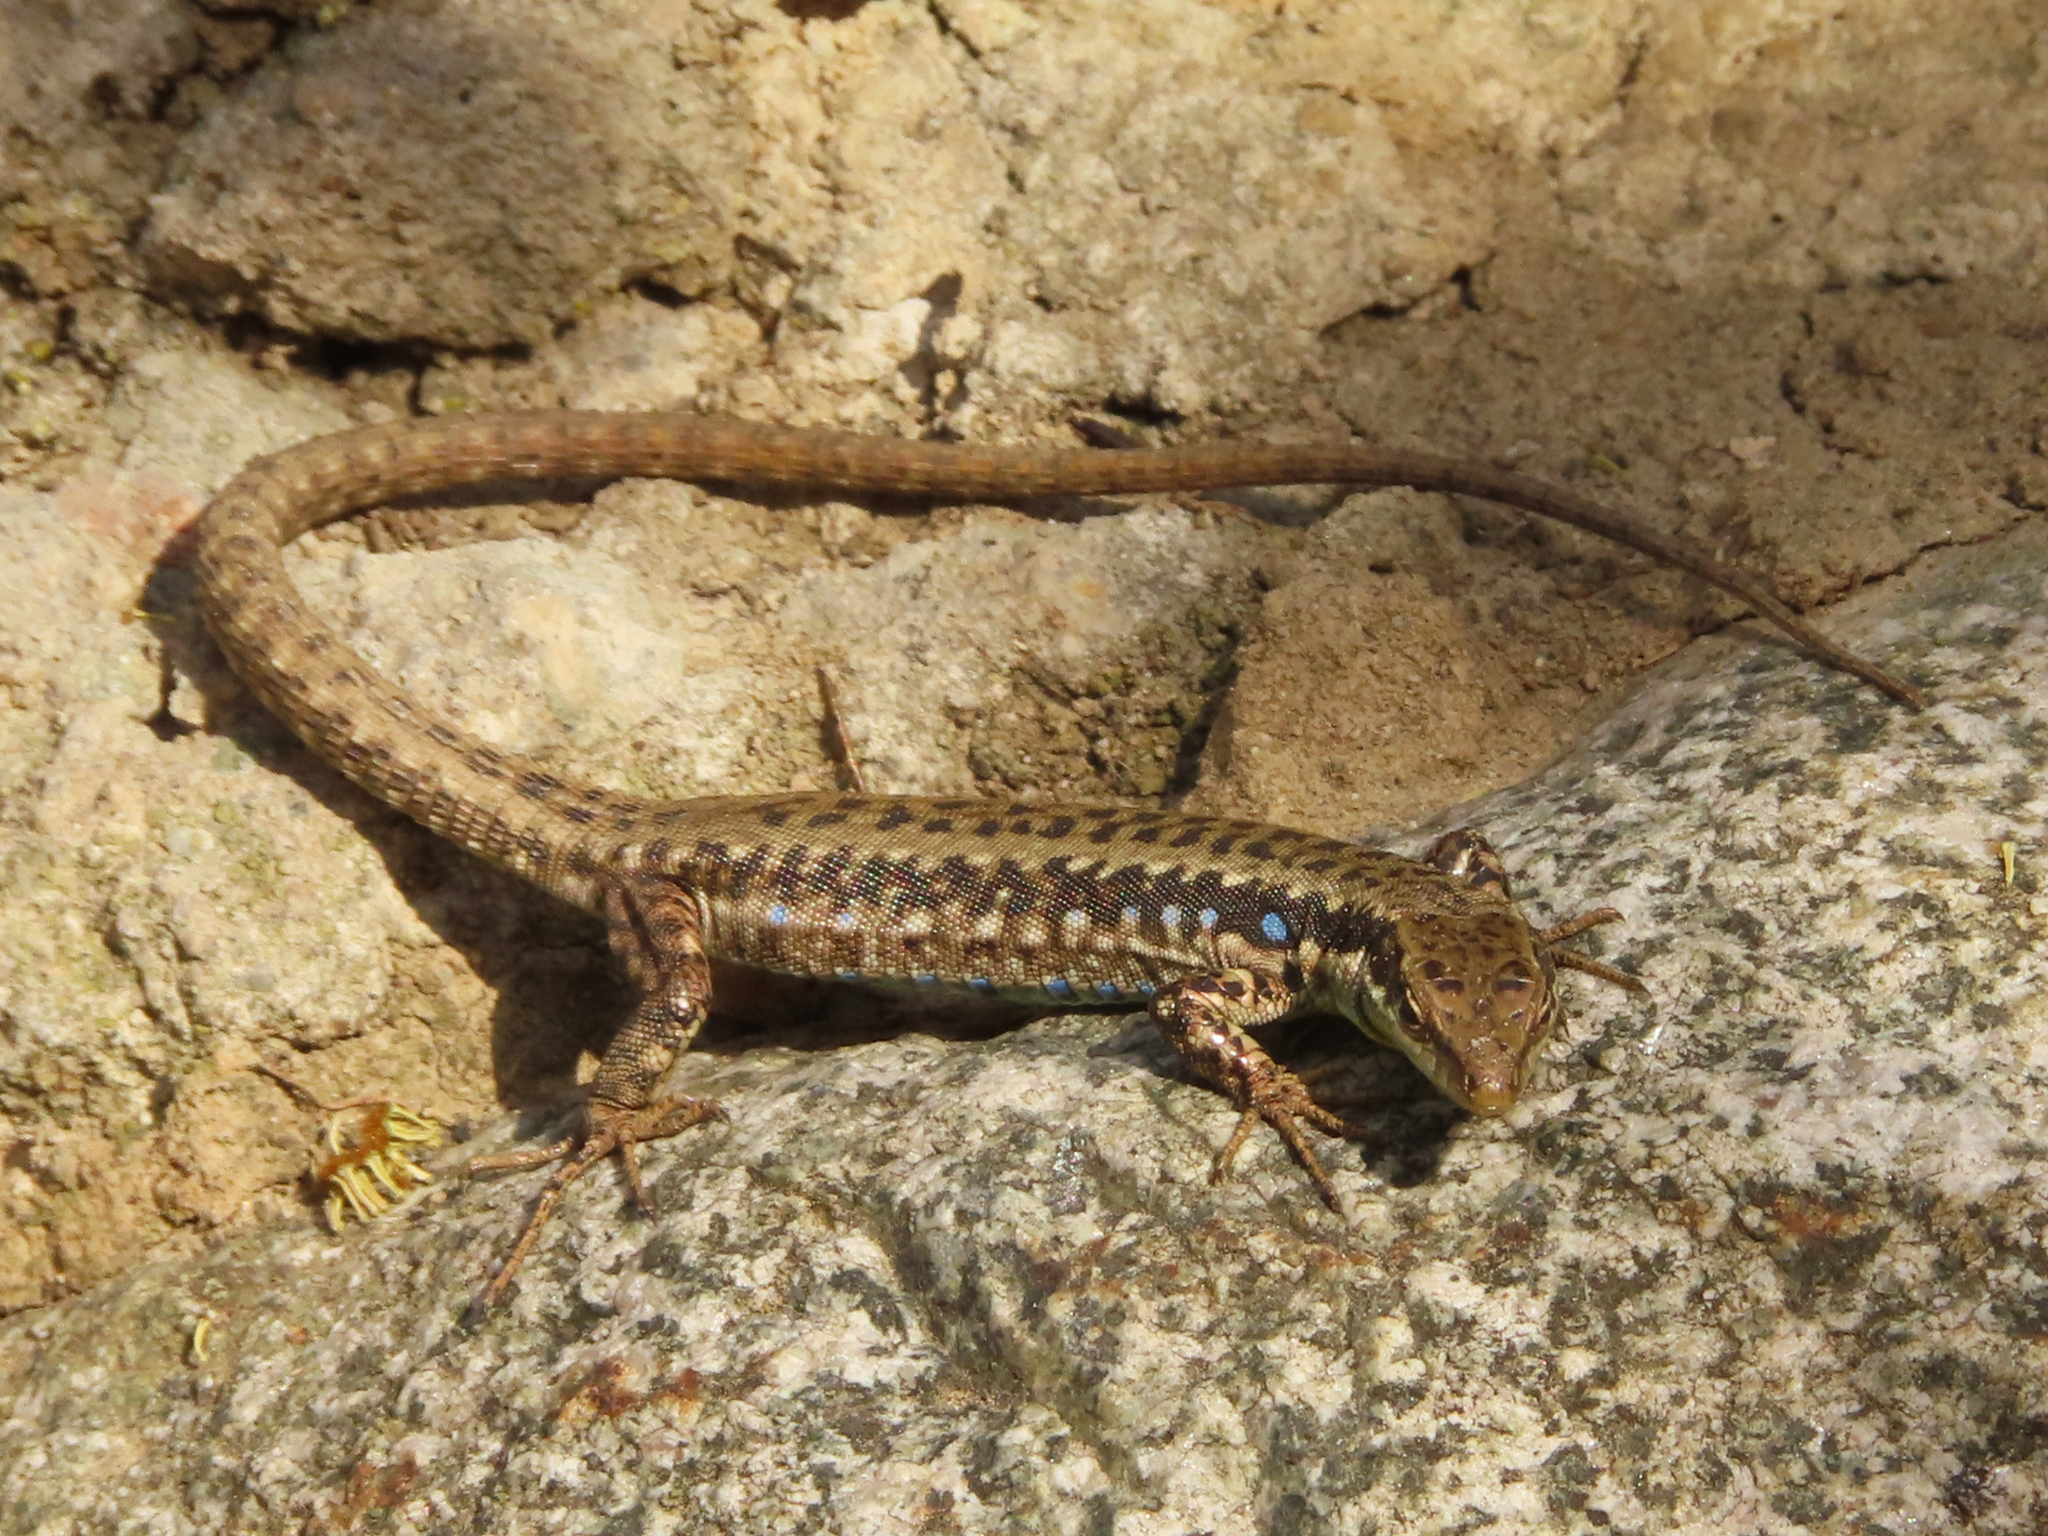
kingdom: Animalia
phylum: Chordata
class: Squamata
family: Lacertidae
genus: Darevskia
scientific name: Darevskia raddei
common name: Radde's lizard
